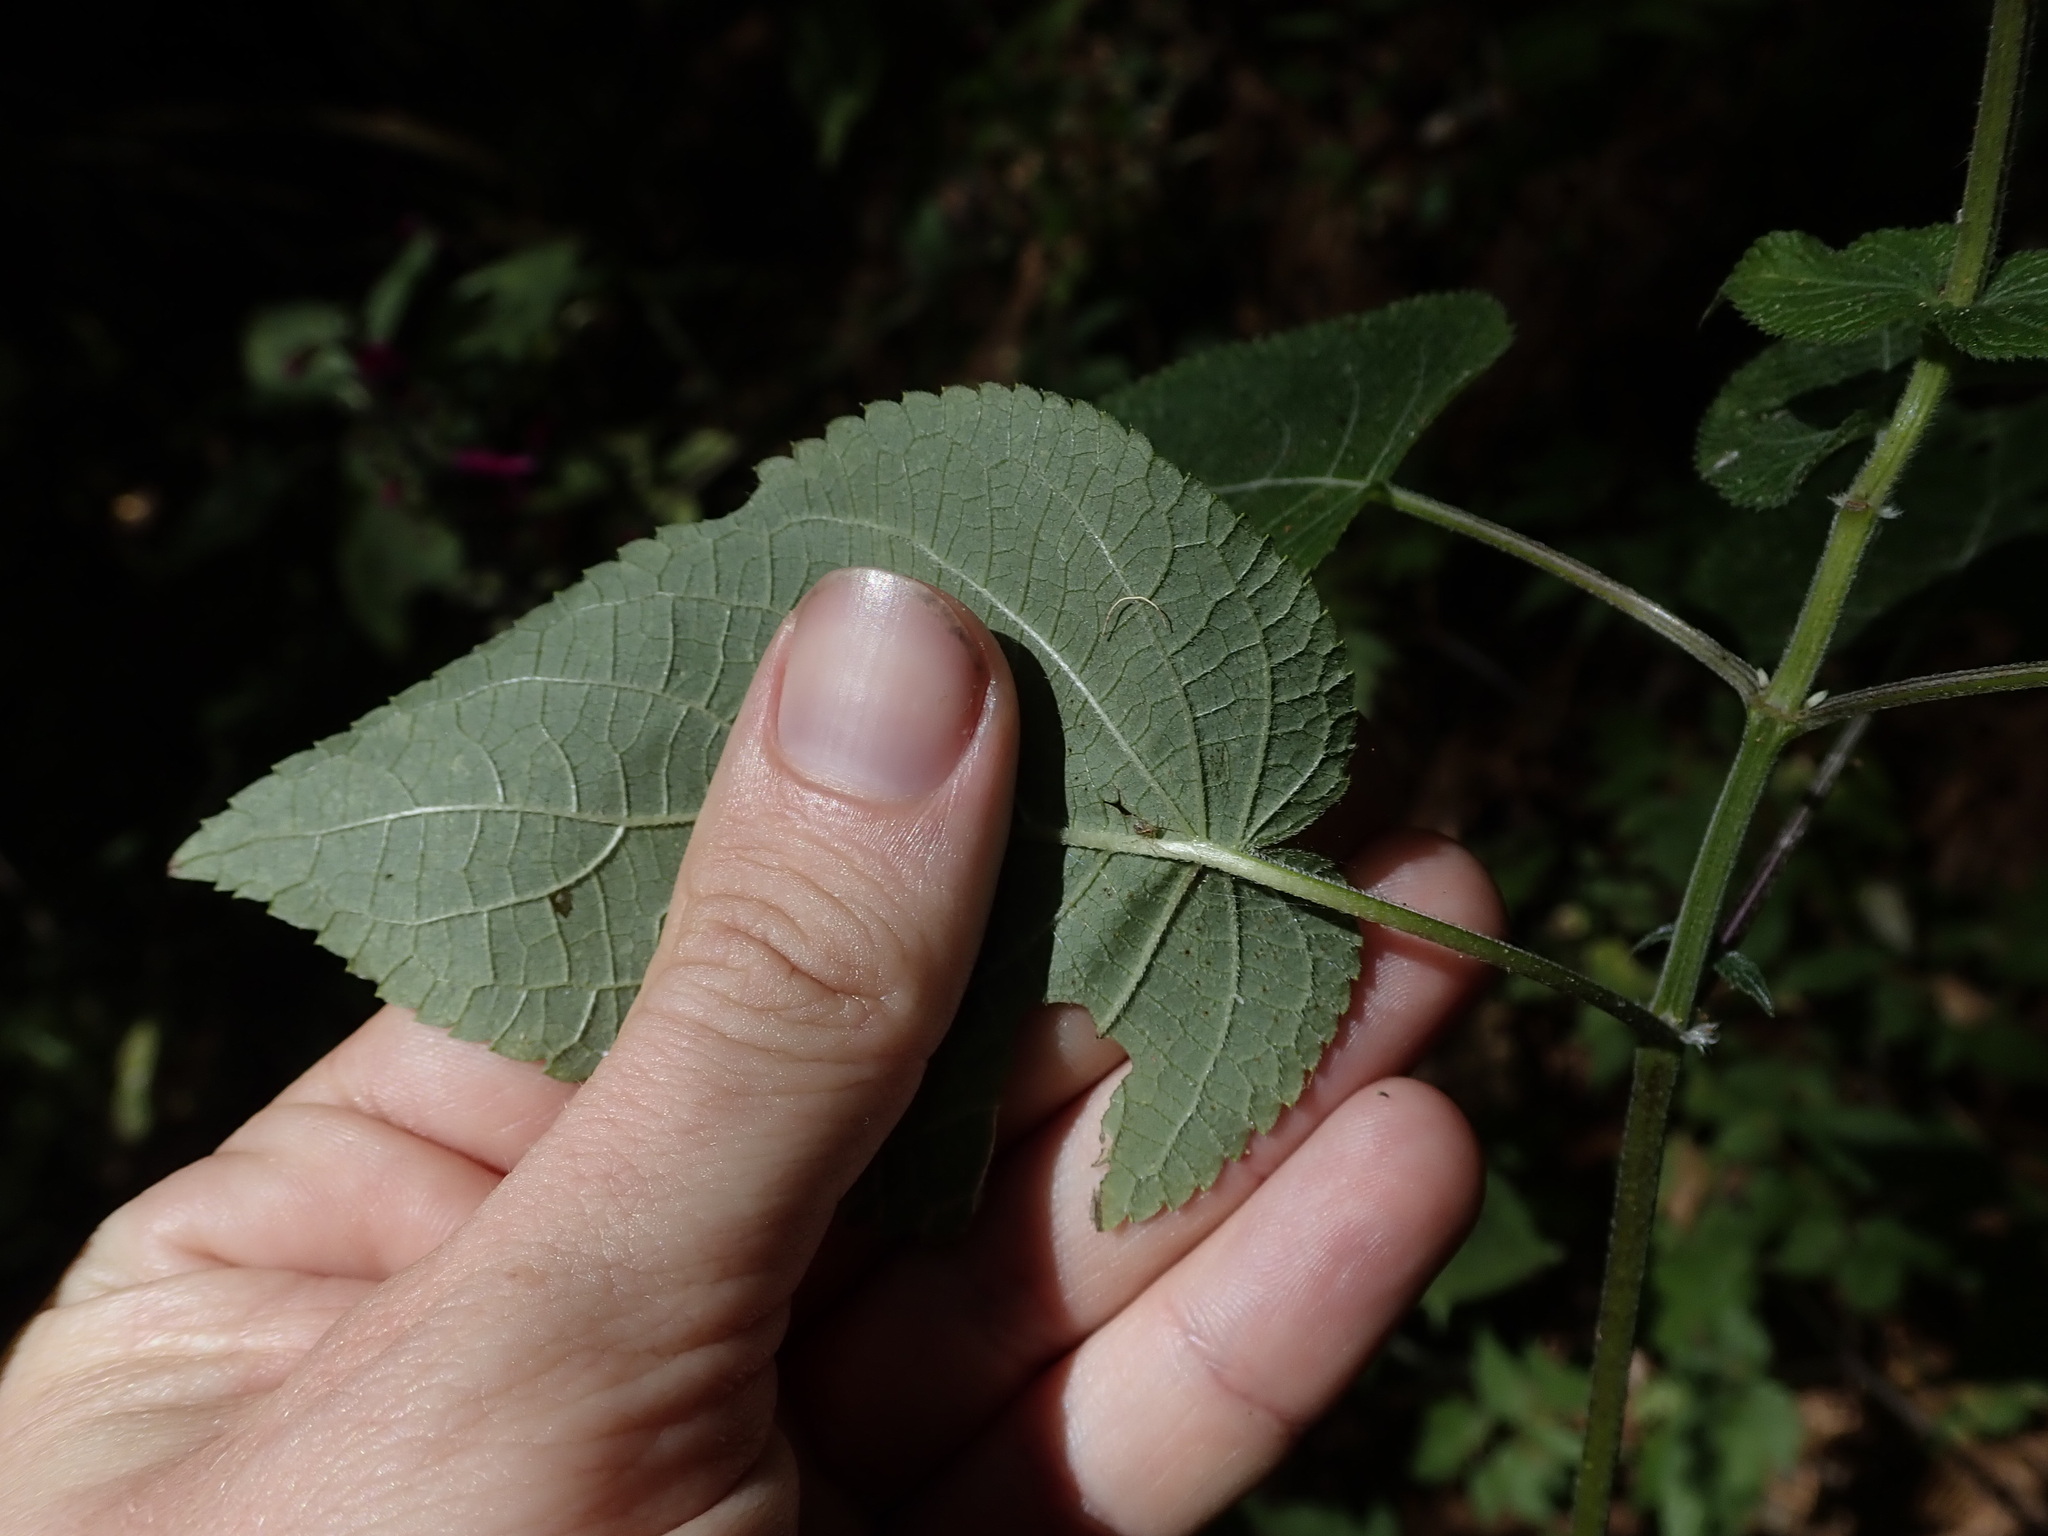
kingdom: Plantae
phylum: Tracheophyta
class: Magnoliopsida
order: Lamiales
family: Lamiaceae
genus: Salvia
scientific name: Salvia punicans
